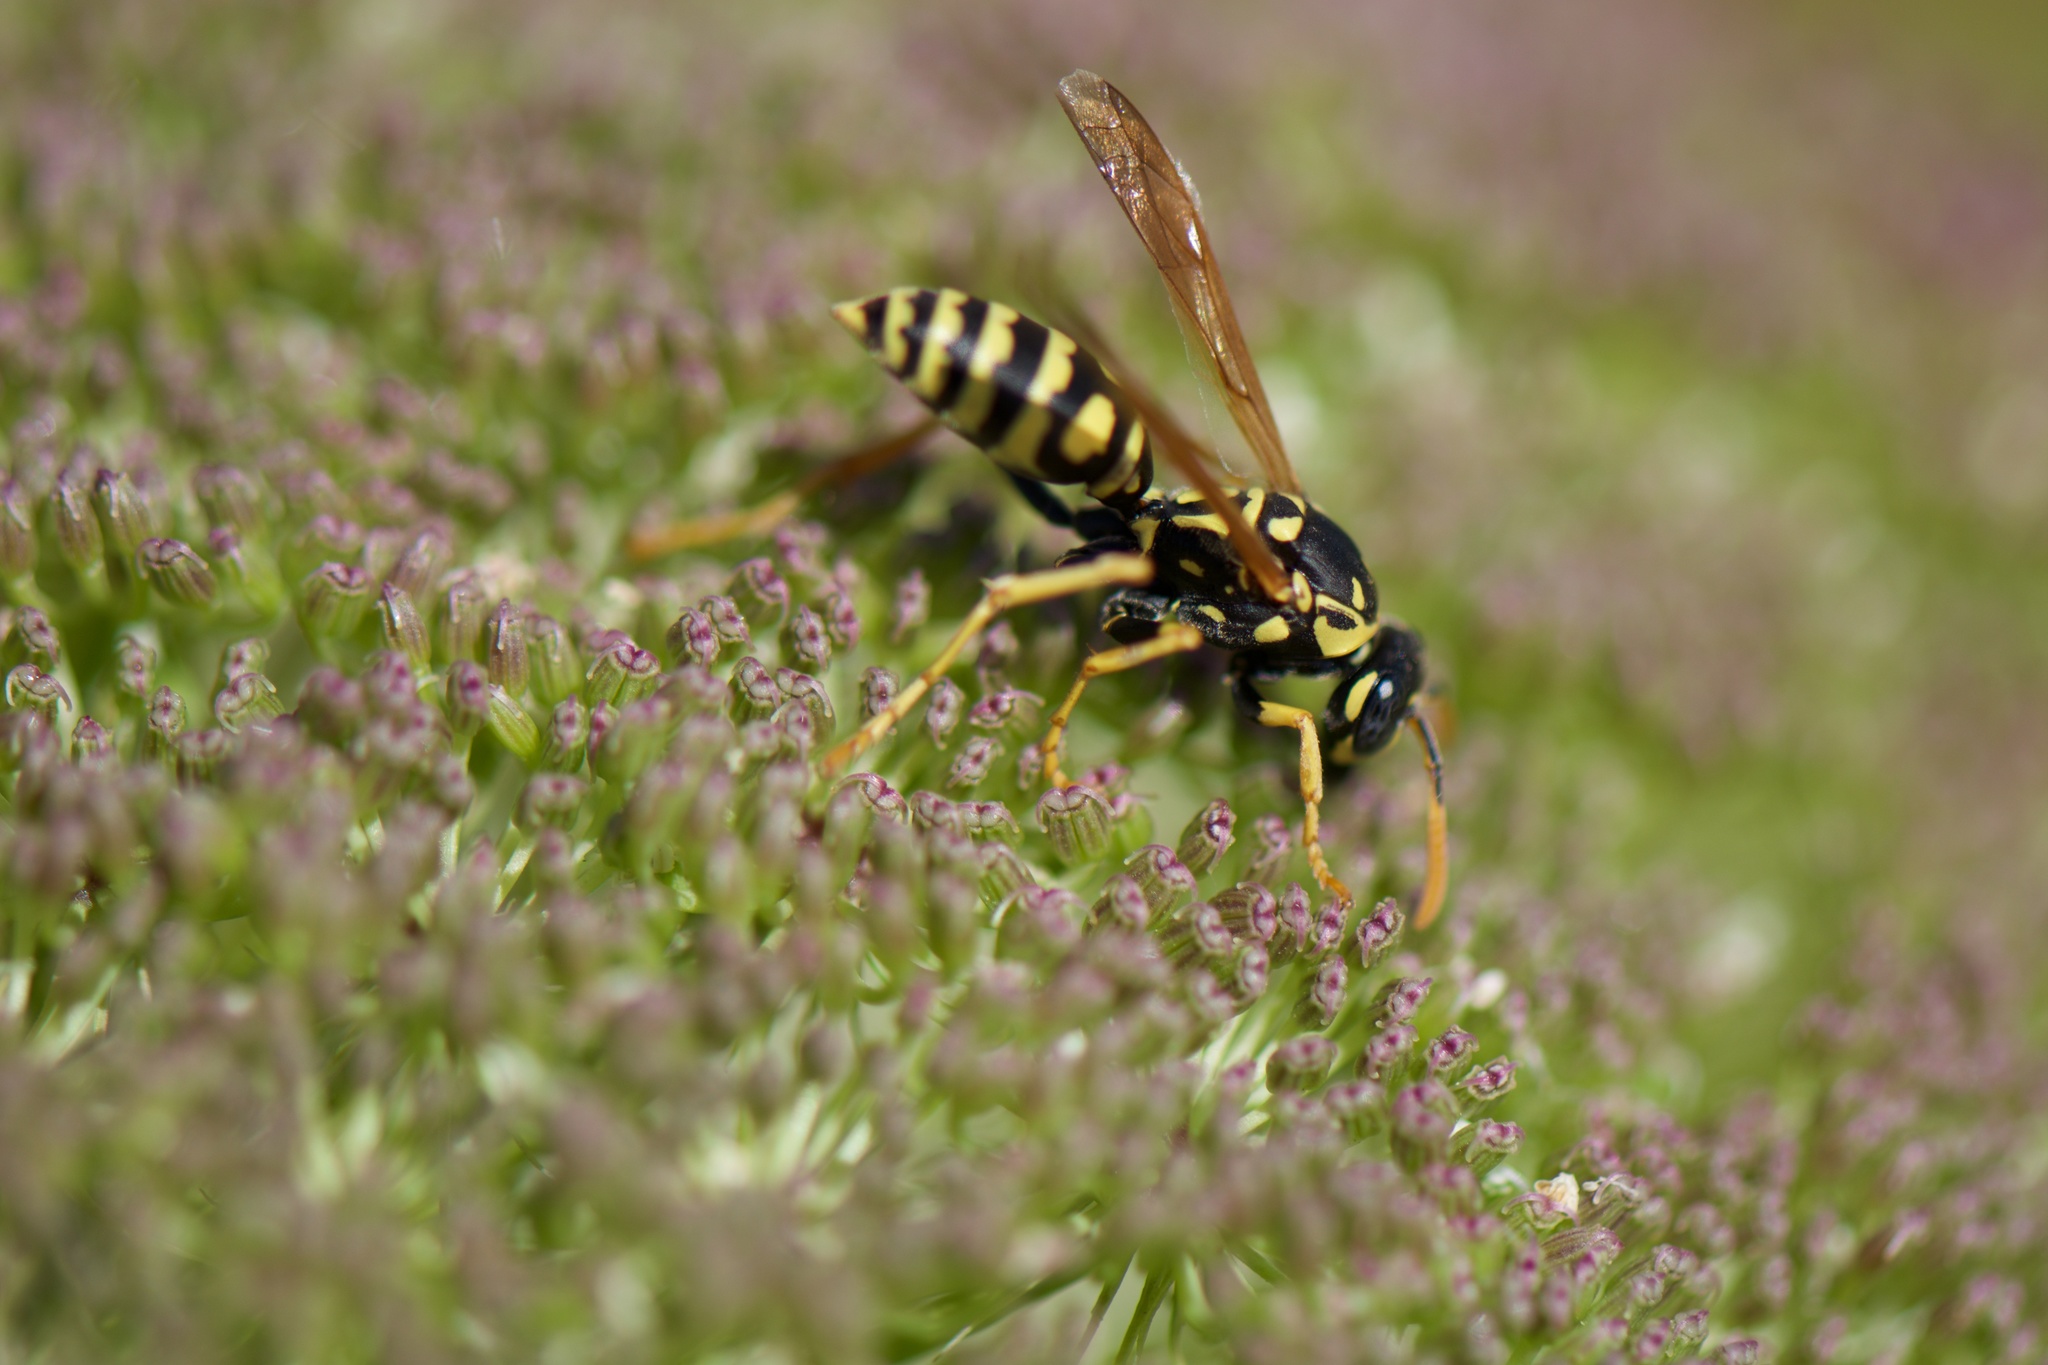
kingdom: Animalia
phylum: Arthropoda
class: Insecta
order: Hymenoptera
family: Eumenidae
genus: Polistes
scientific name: Polistes dominula
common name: Paper wasp
